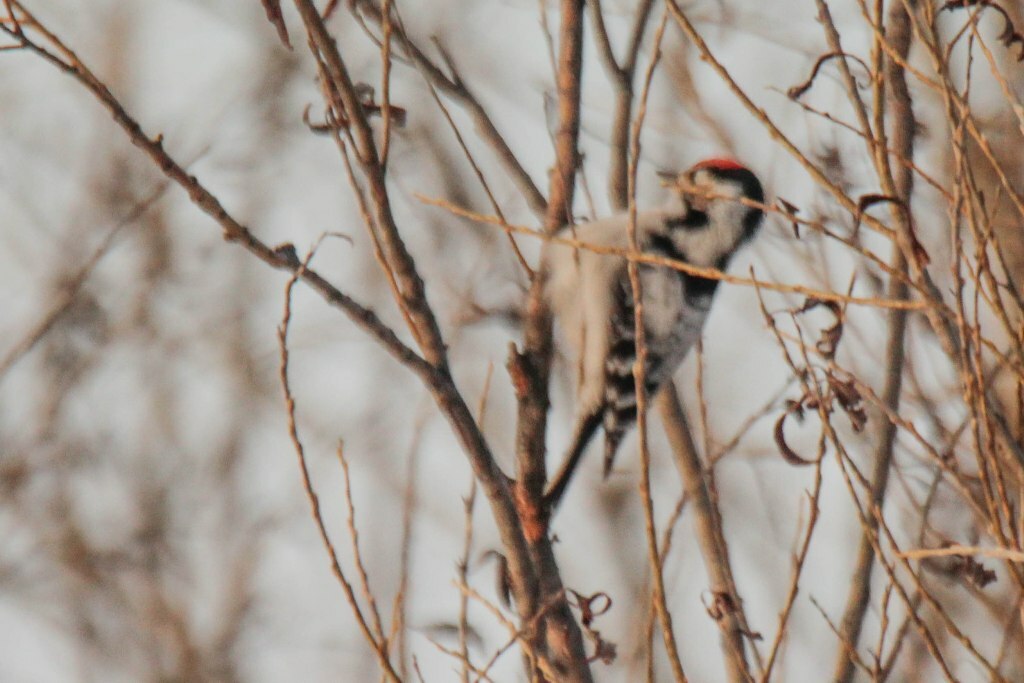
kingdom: Animalia
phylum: Chordata
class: Aves
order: Piciformes
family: Picidae
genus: Dryobates
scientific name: Dryobates minor
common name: Lesser spotted woodpecker
